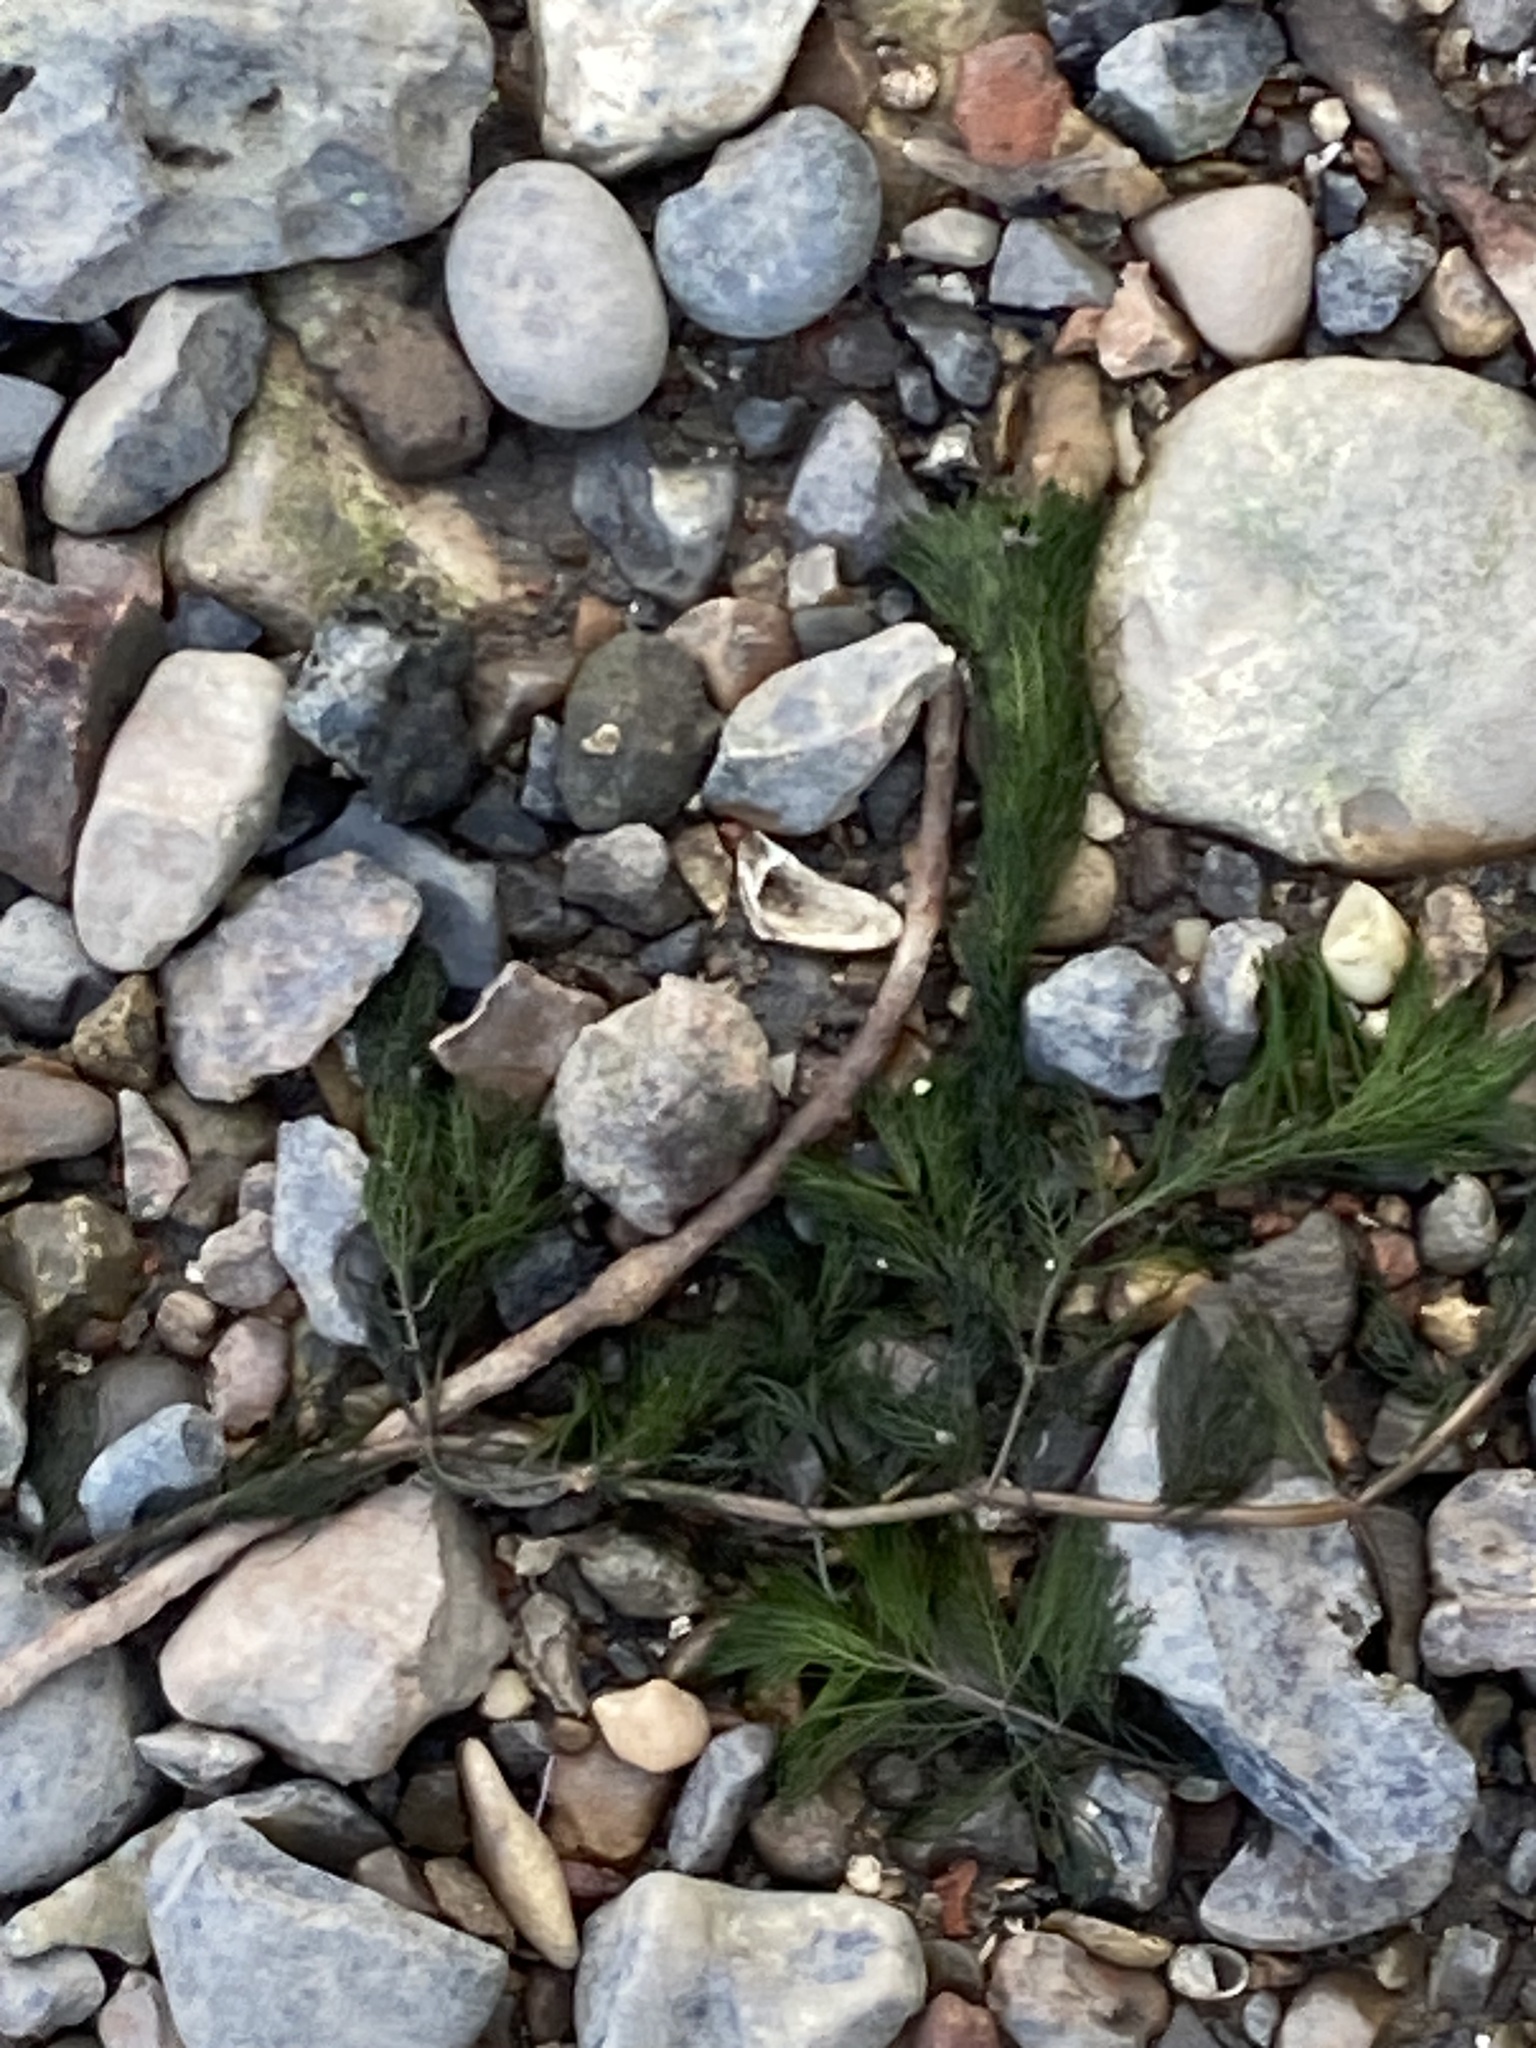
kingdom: Plantae
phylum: Tracheophyta
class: Magnoliopsida
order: Saxifragales
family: Haloragaceae
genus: Myriophyllum
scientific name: Myriophyllum spicatum
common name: Spiked water-milfoil
